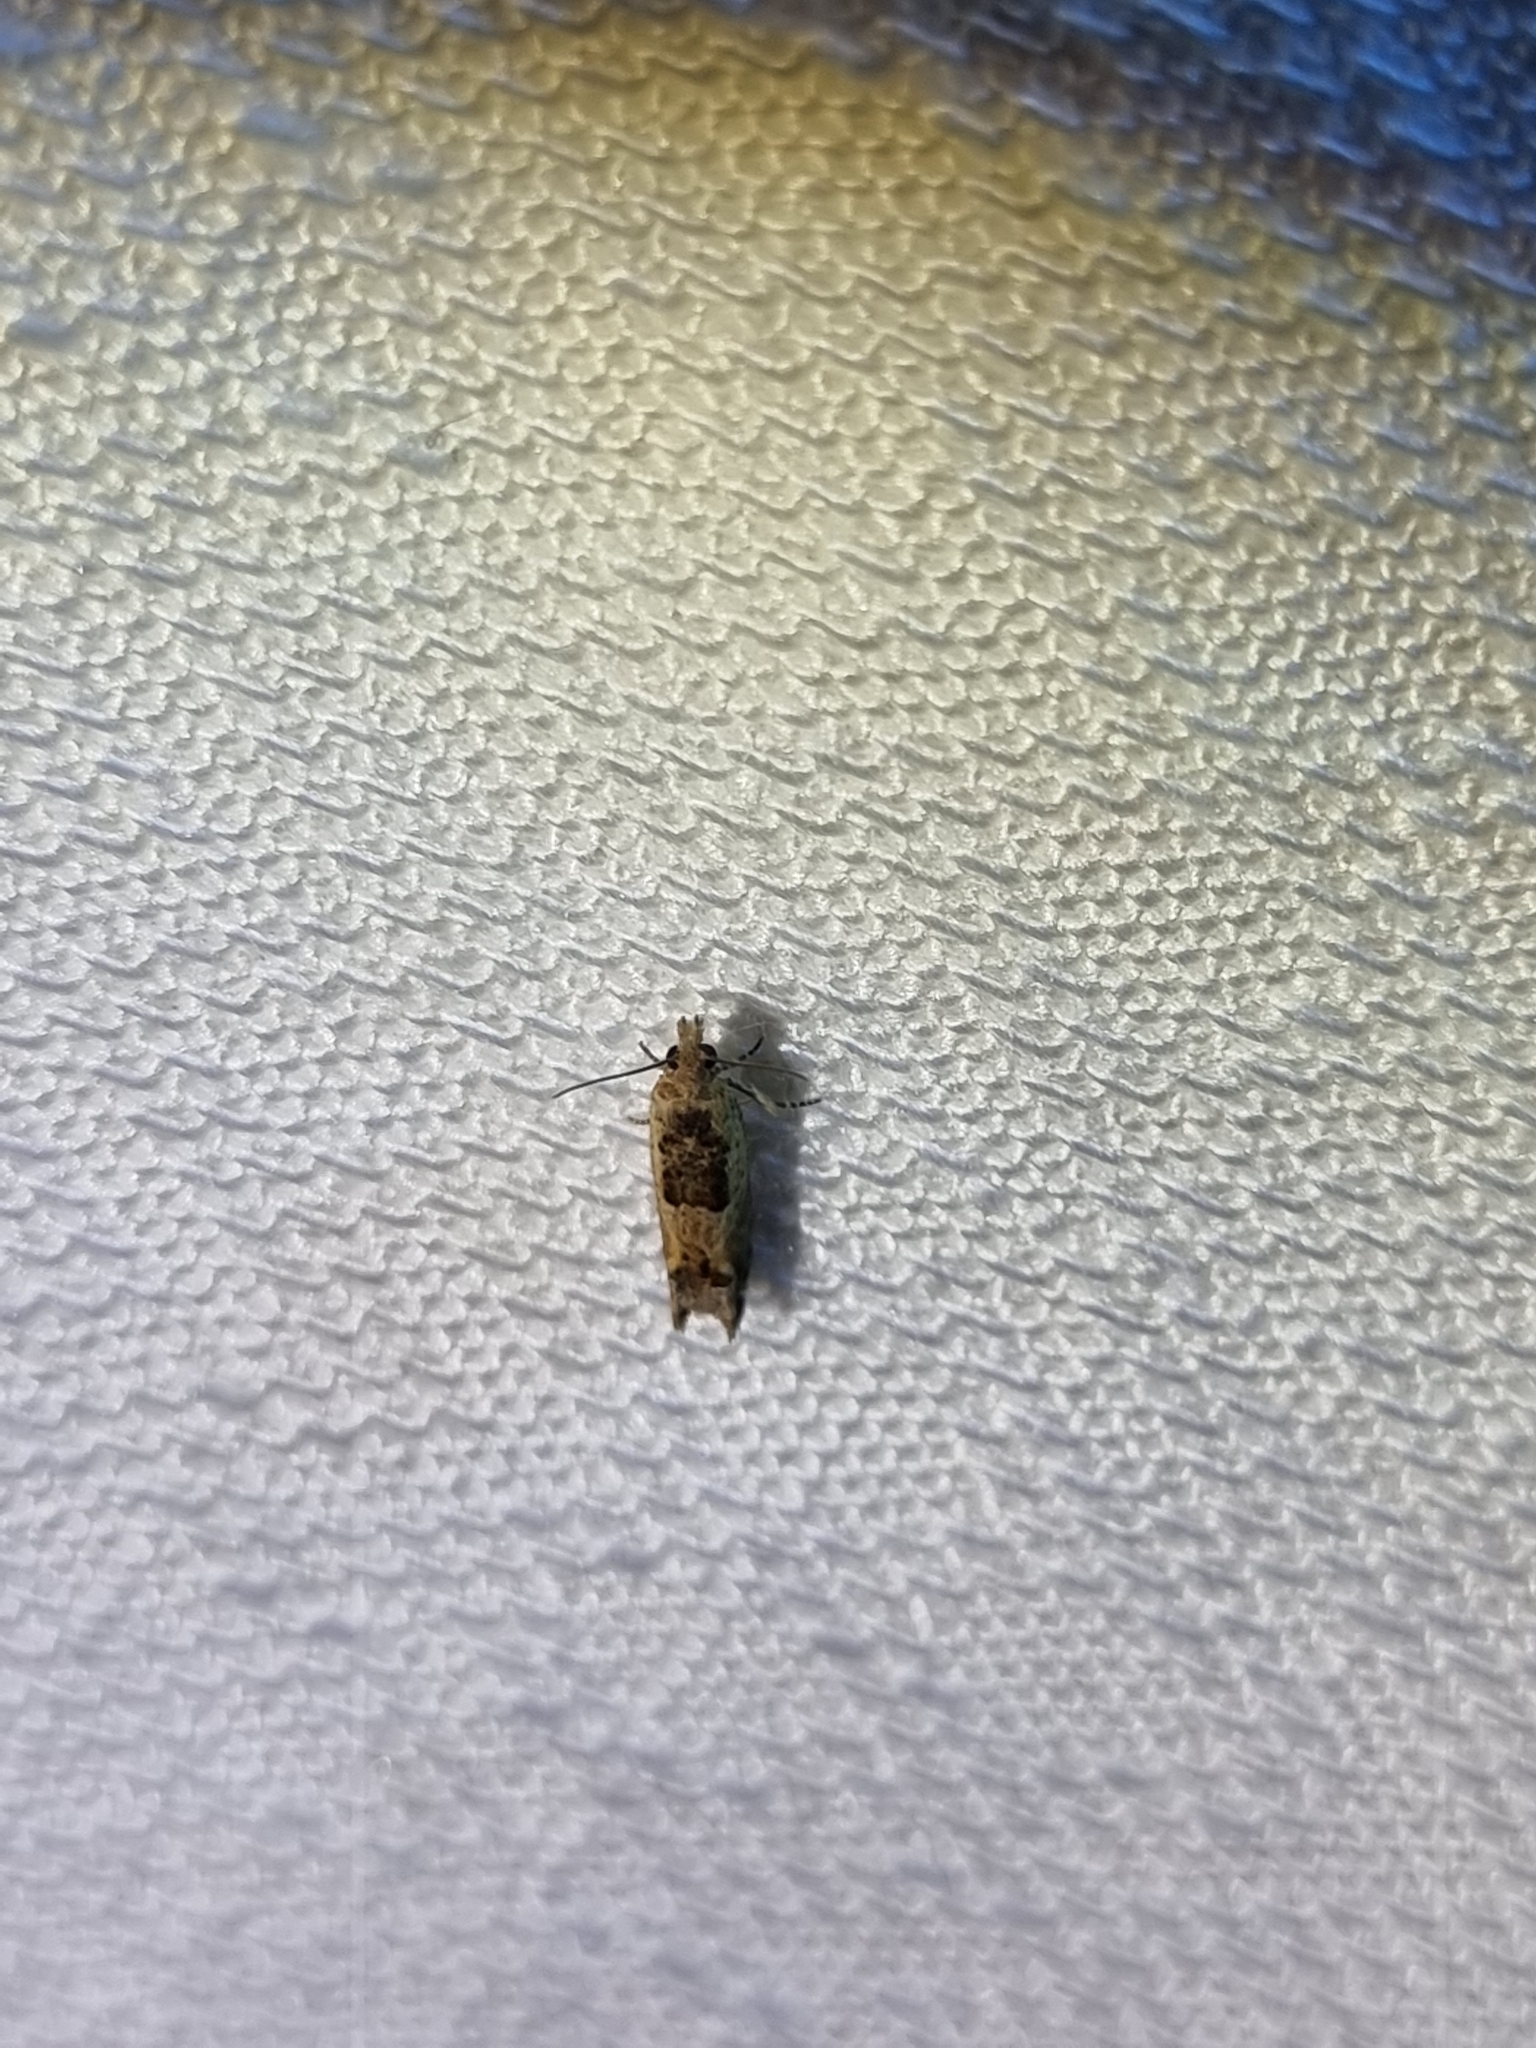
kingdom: Animalia
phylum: Arthropoda
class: Insecta
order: Lepidoptera
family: Tortricidae
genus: Crocidosema
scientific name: Crocidosema plebejana
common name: Southern bell
